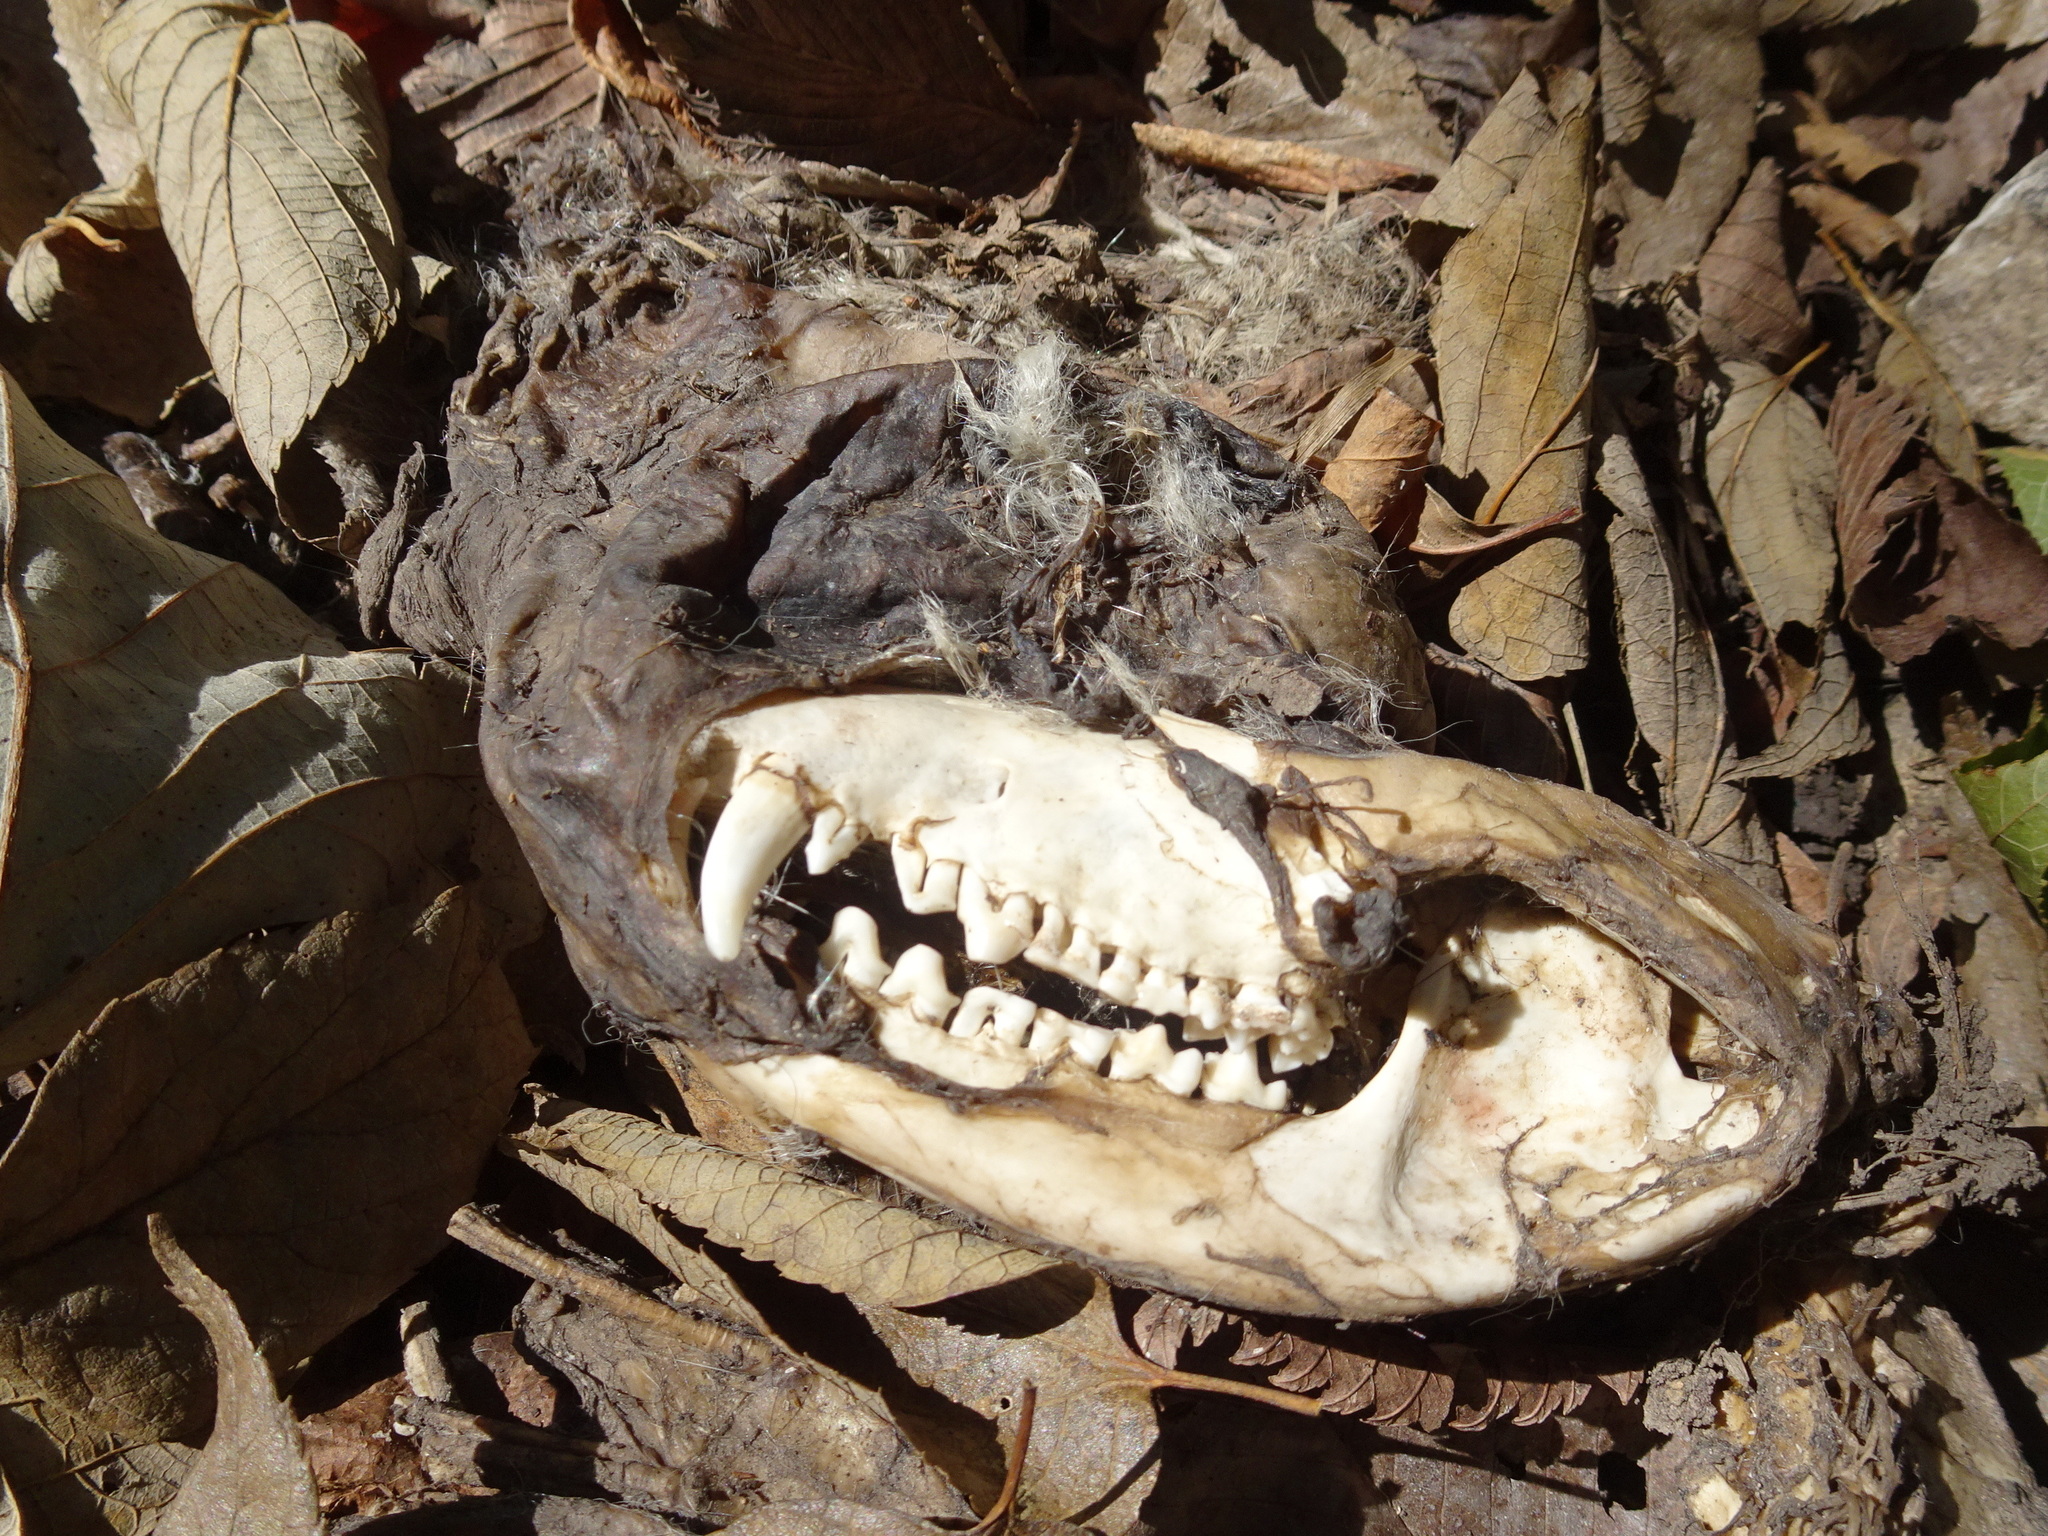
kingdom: Animalia
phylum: Chordata
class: Mammalia
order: Didelphimorphia
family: Didelphidae
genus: Didelphis
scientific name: Didelphis virginiana
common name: Virginia opossum
